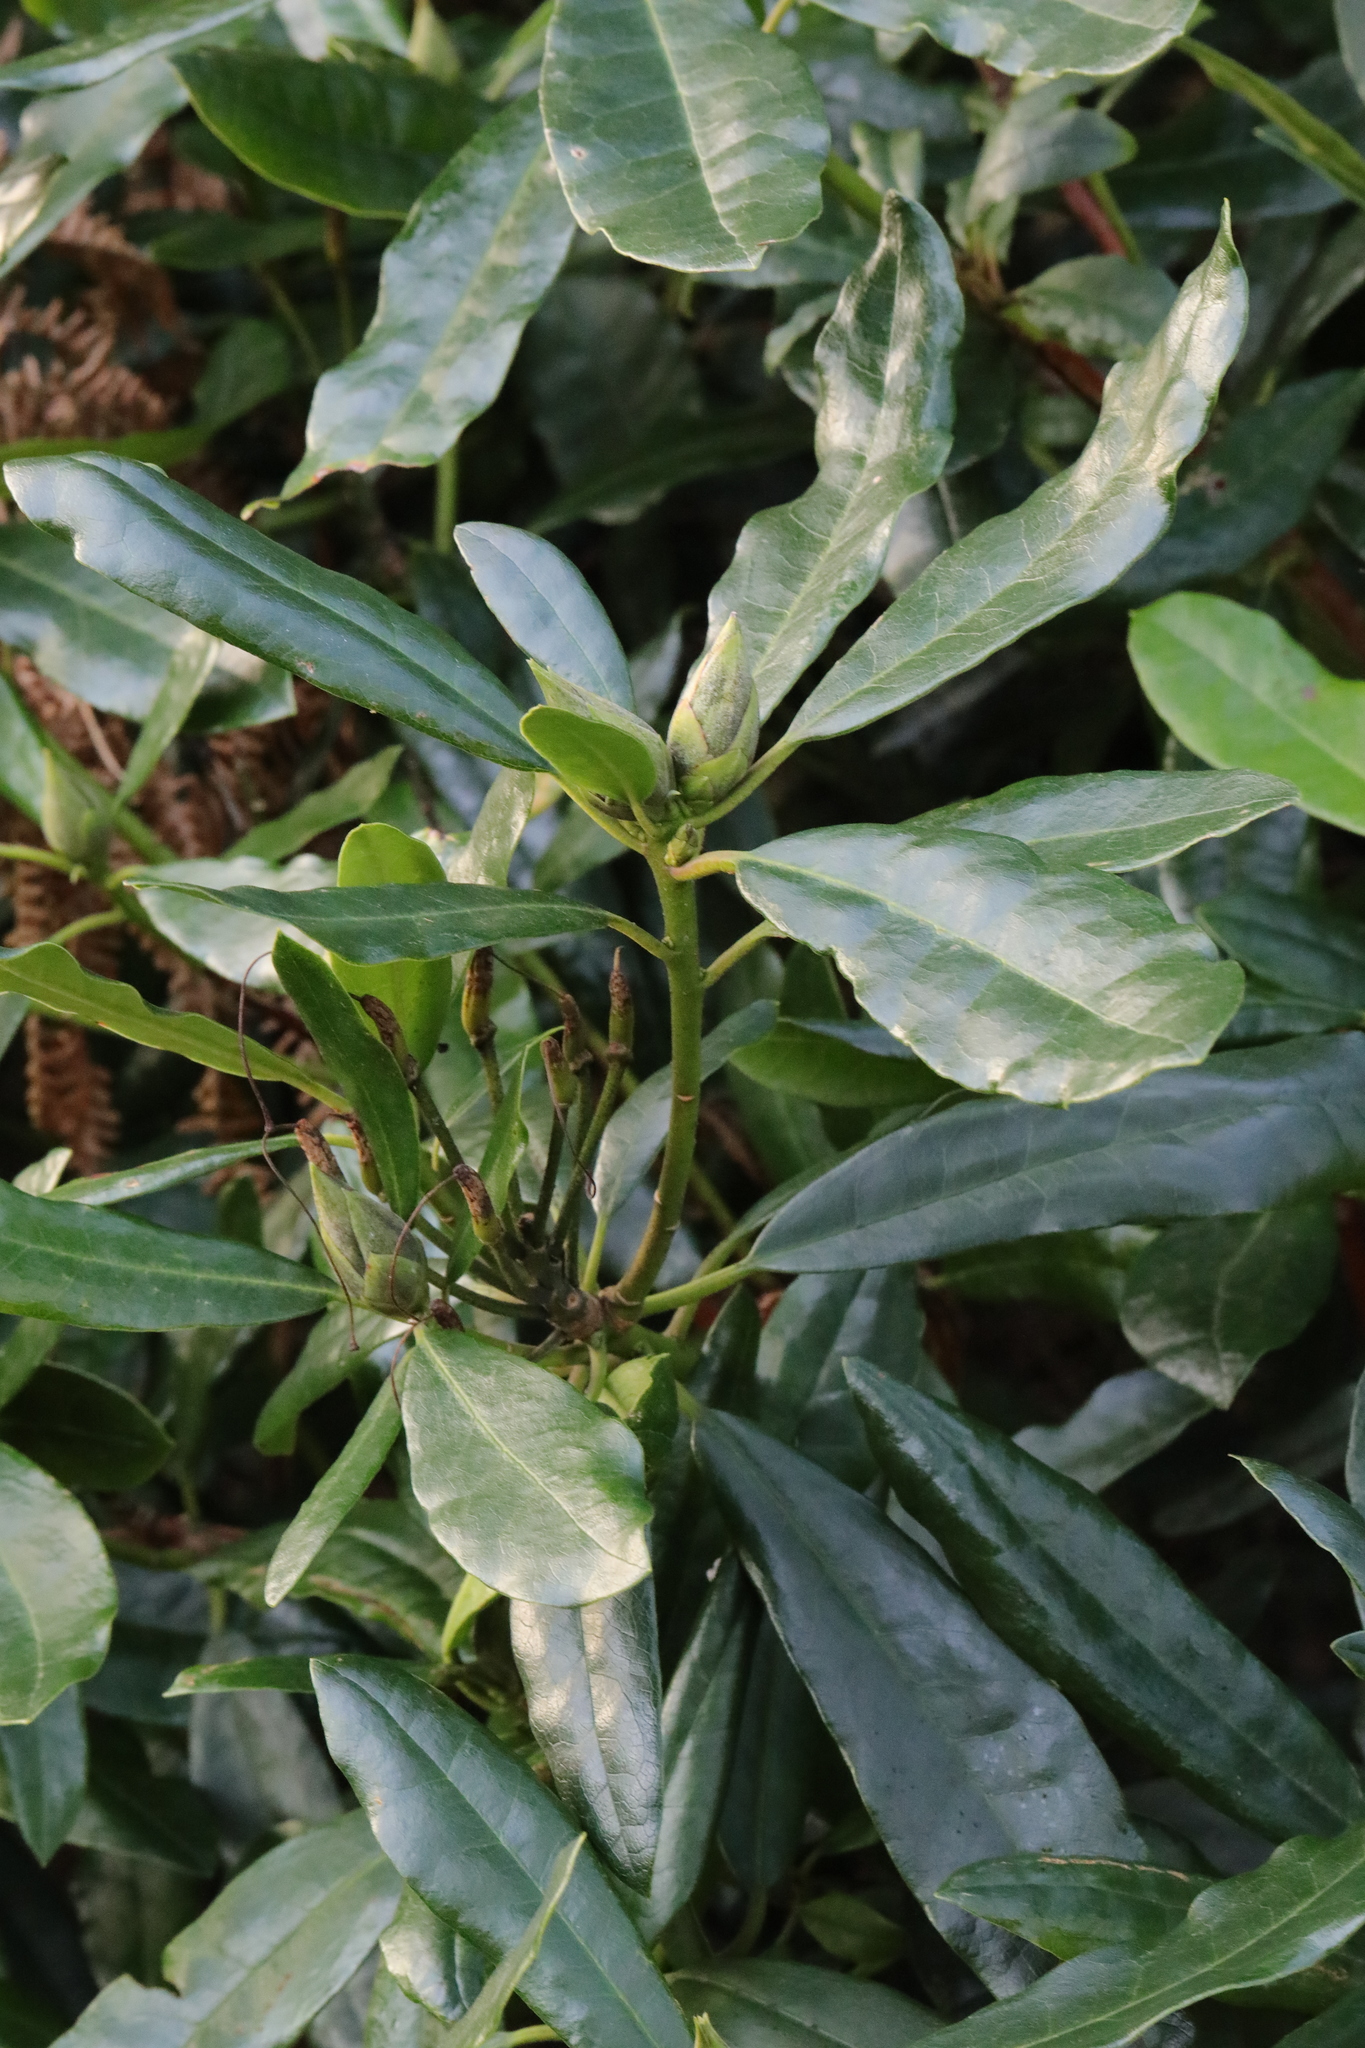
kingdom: Plantae
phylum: Tracheophyta
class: Magnoliopsida
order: Ericales
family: Ericaceae
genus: Rhododendron
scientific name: Rhododendron ponticum
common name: Rhododendron
